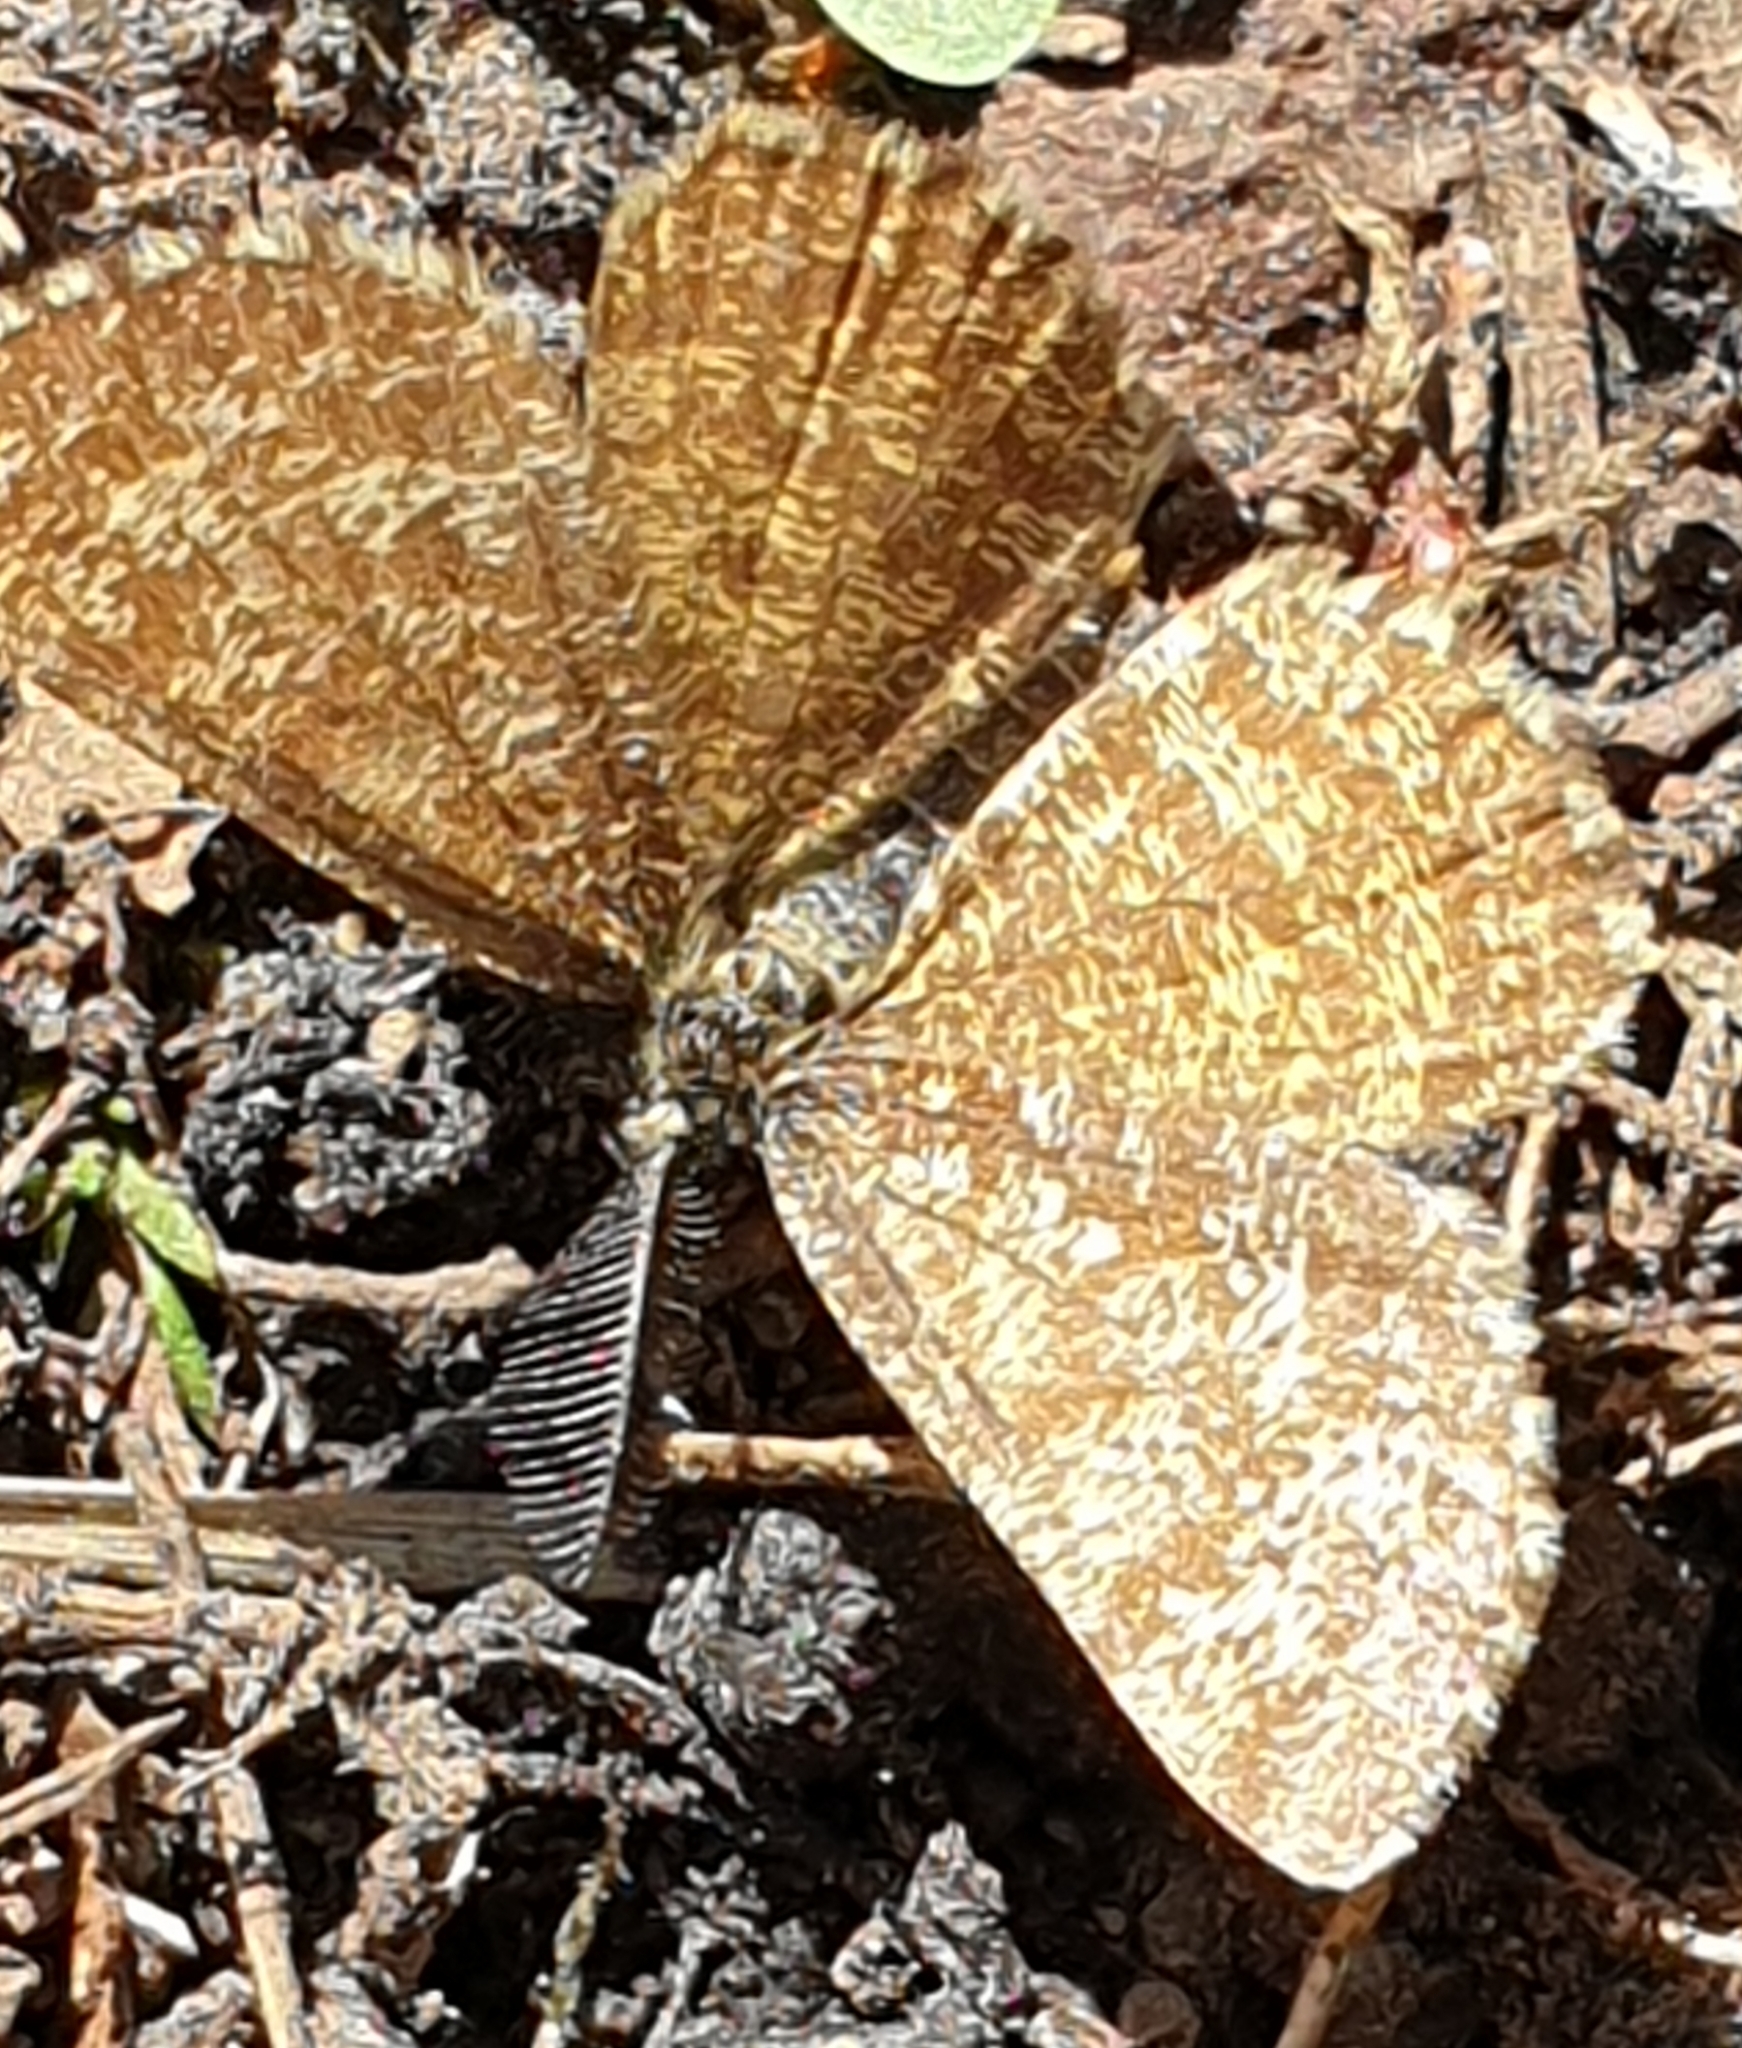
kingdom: Animalia
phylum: Arthropoda
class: Insecta
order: Lepidoptera
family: Geometridae
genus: Ematurga
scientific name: Ematurga atomaria
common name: Common heath
